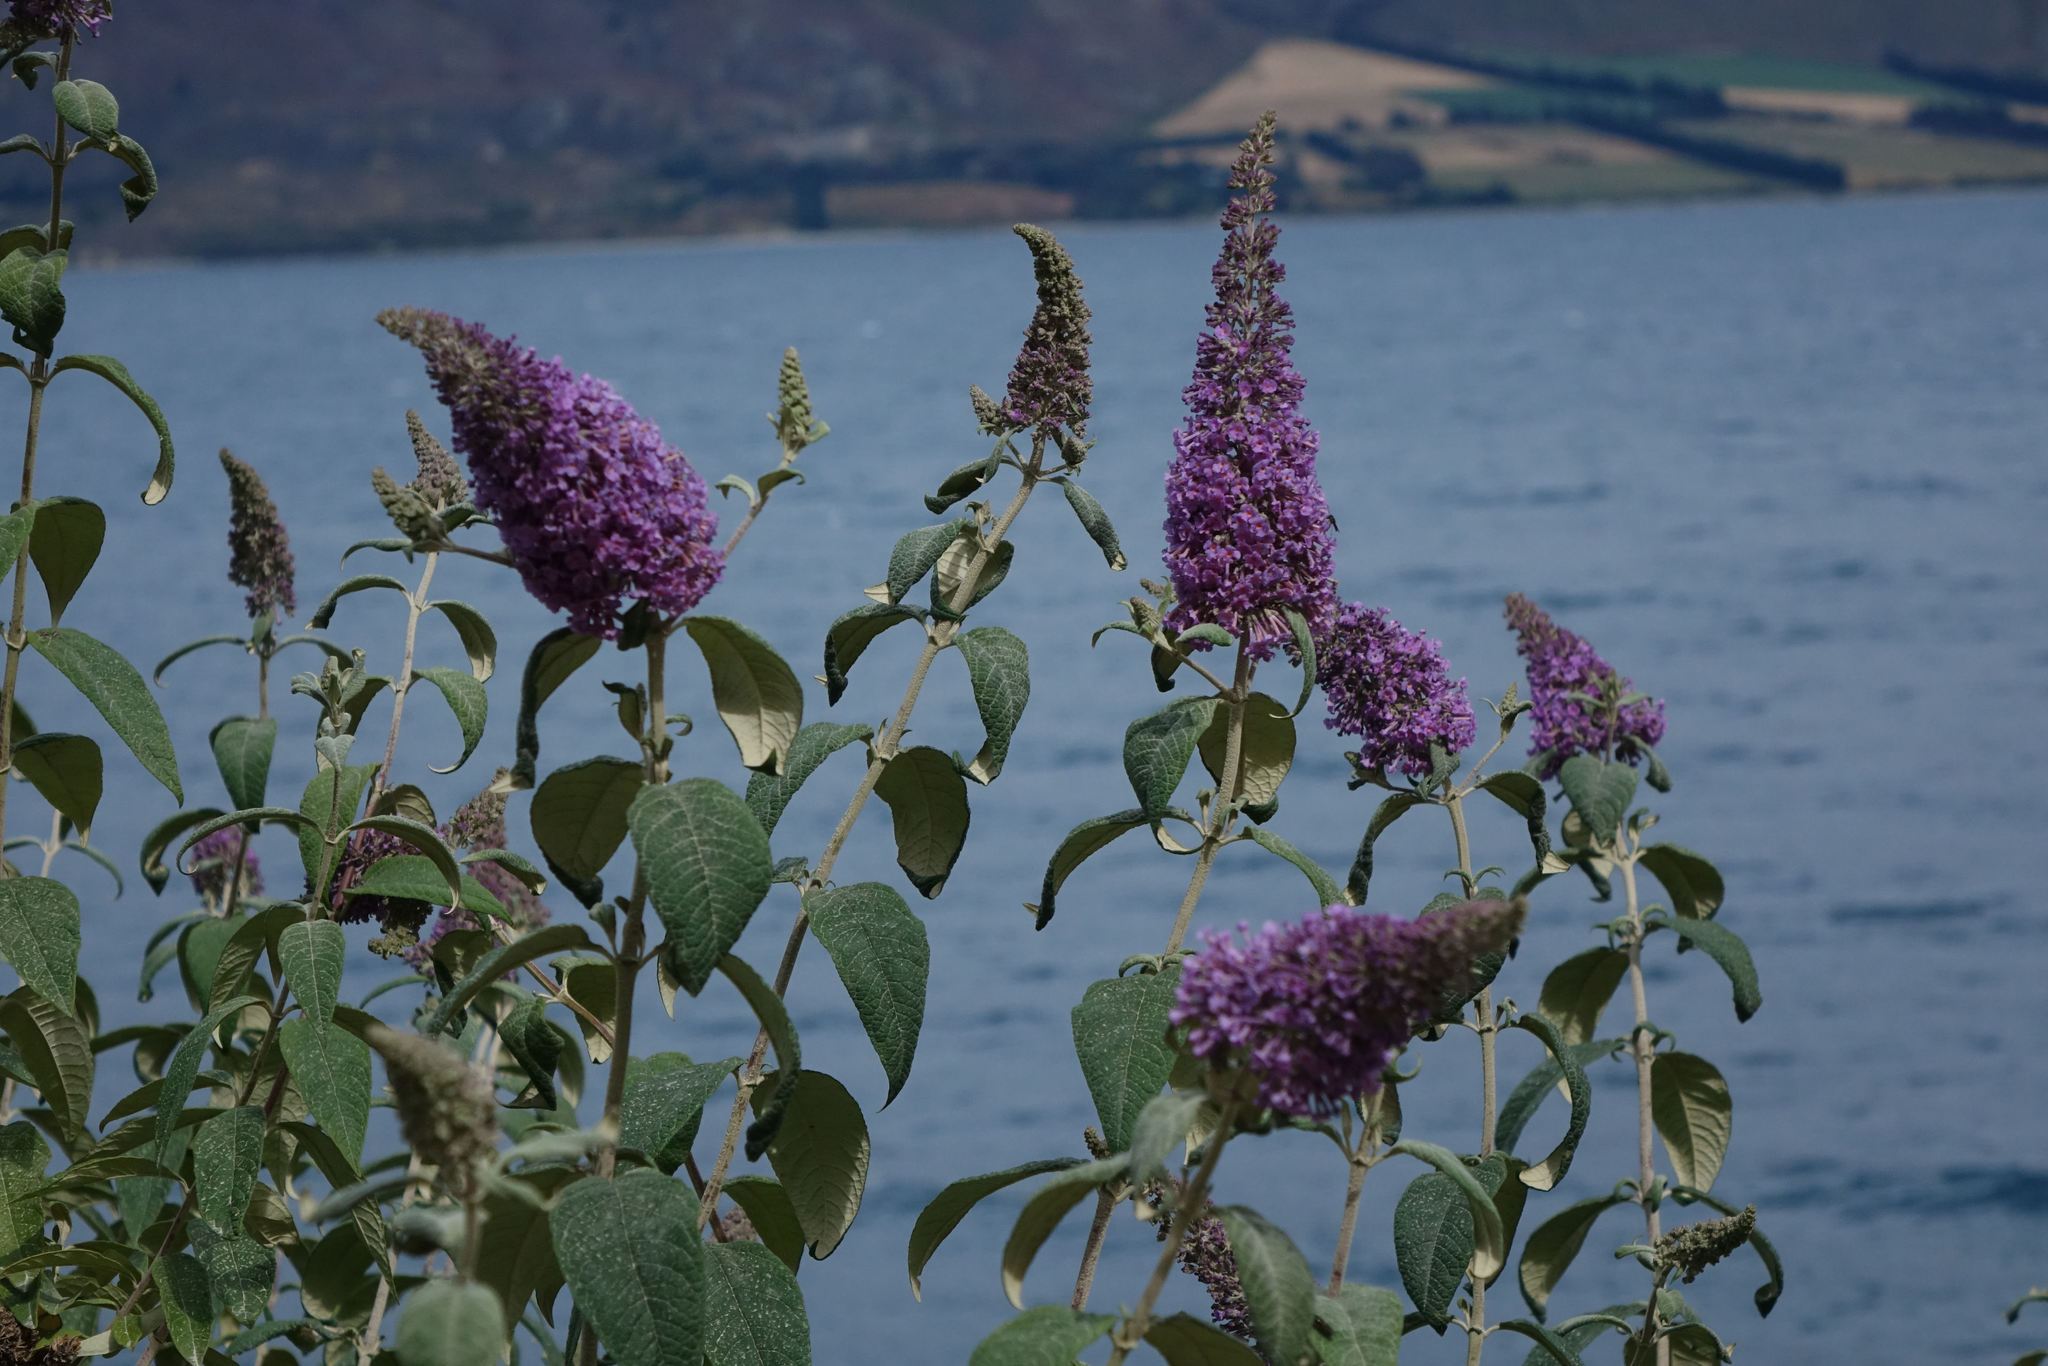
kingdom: Plantae
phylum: Tracheophyta
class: Magnoliopsida
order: Lamiales
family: Scrophulariaceae
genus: Buddleja
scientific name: Buddleja davidii
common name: Butterfly-bush
